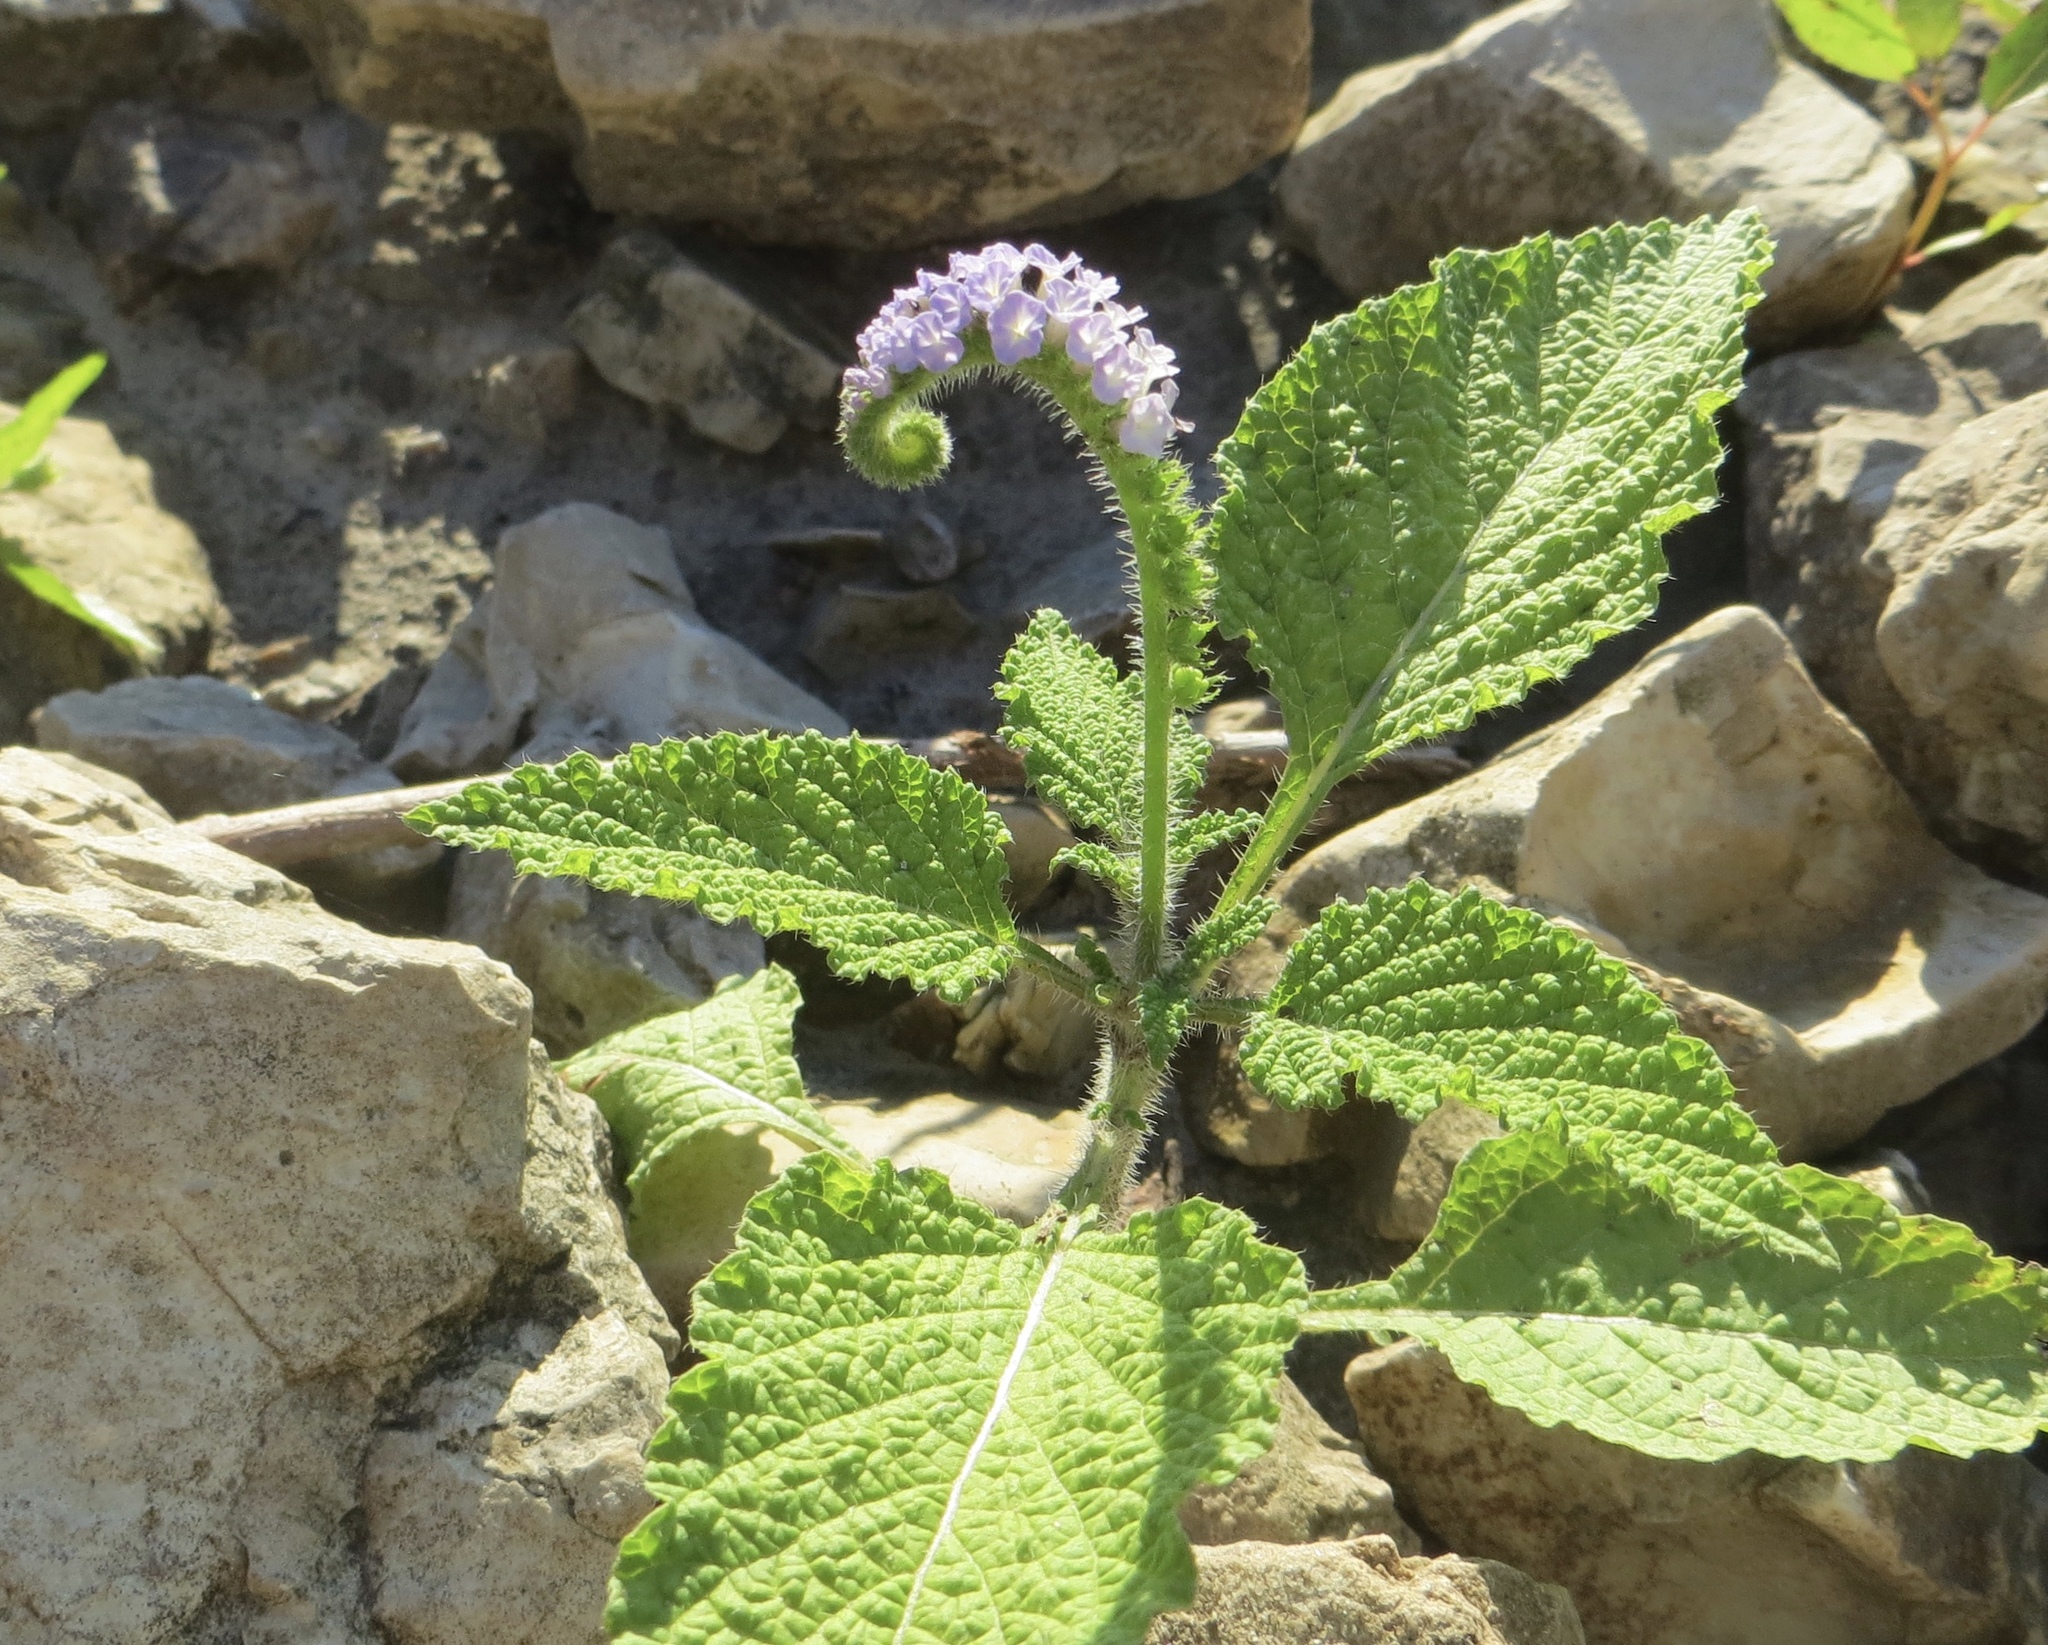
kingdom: Plantae
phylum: Tracheophyta
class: Magnoliopsida
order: Boraginales
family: Heliotropiaceae
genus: Heliotropium
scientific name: Heliotropium indicum
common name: Indian heliotrope
